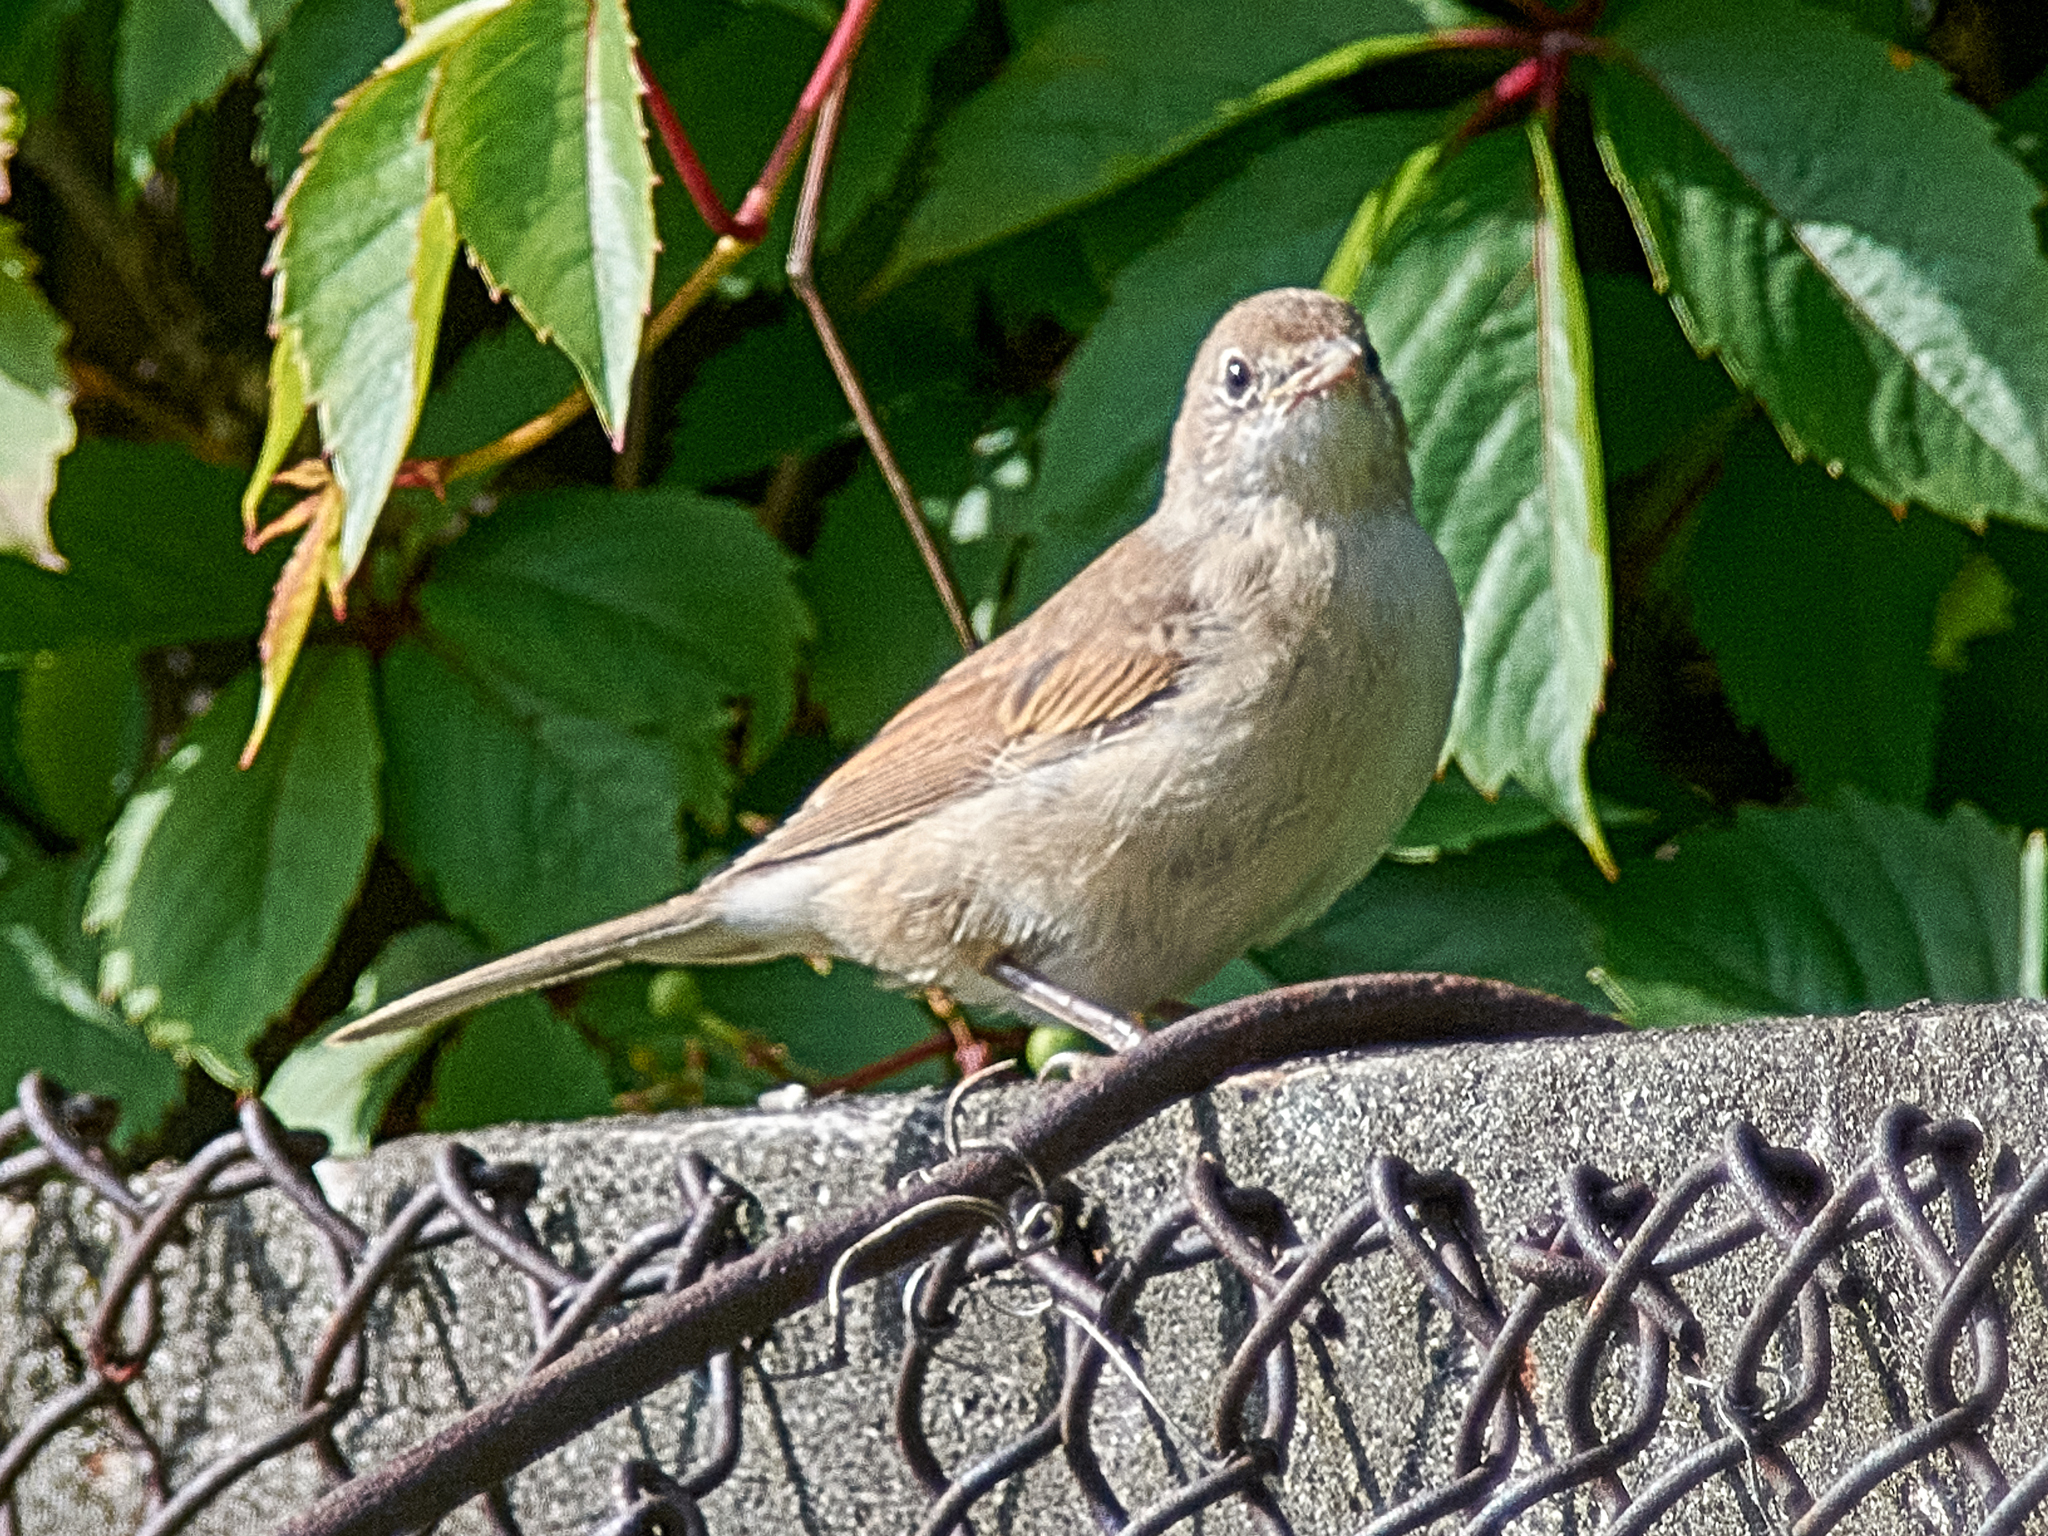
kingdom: Animalia
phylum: Chordata
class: Aves
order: Passeriformes
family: Sylviidae
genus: Sylvia
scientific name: Sylvia communis
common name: Common whitethroat
